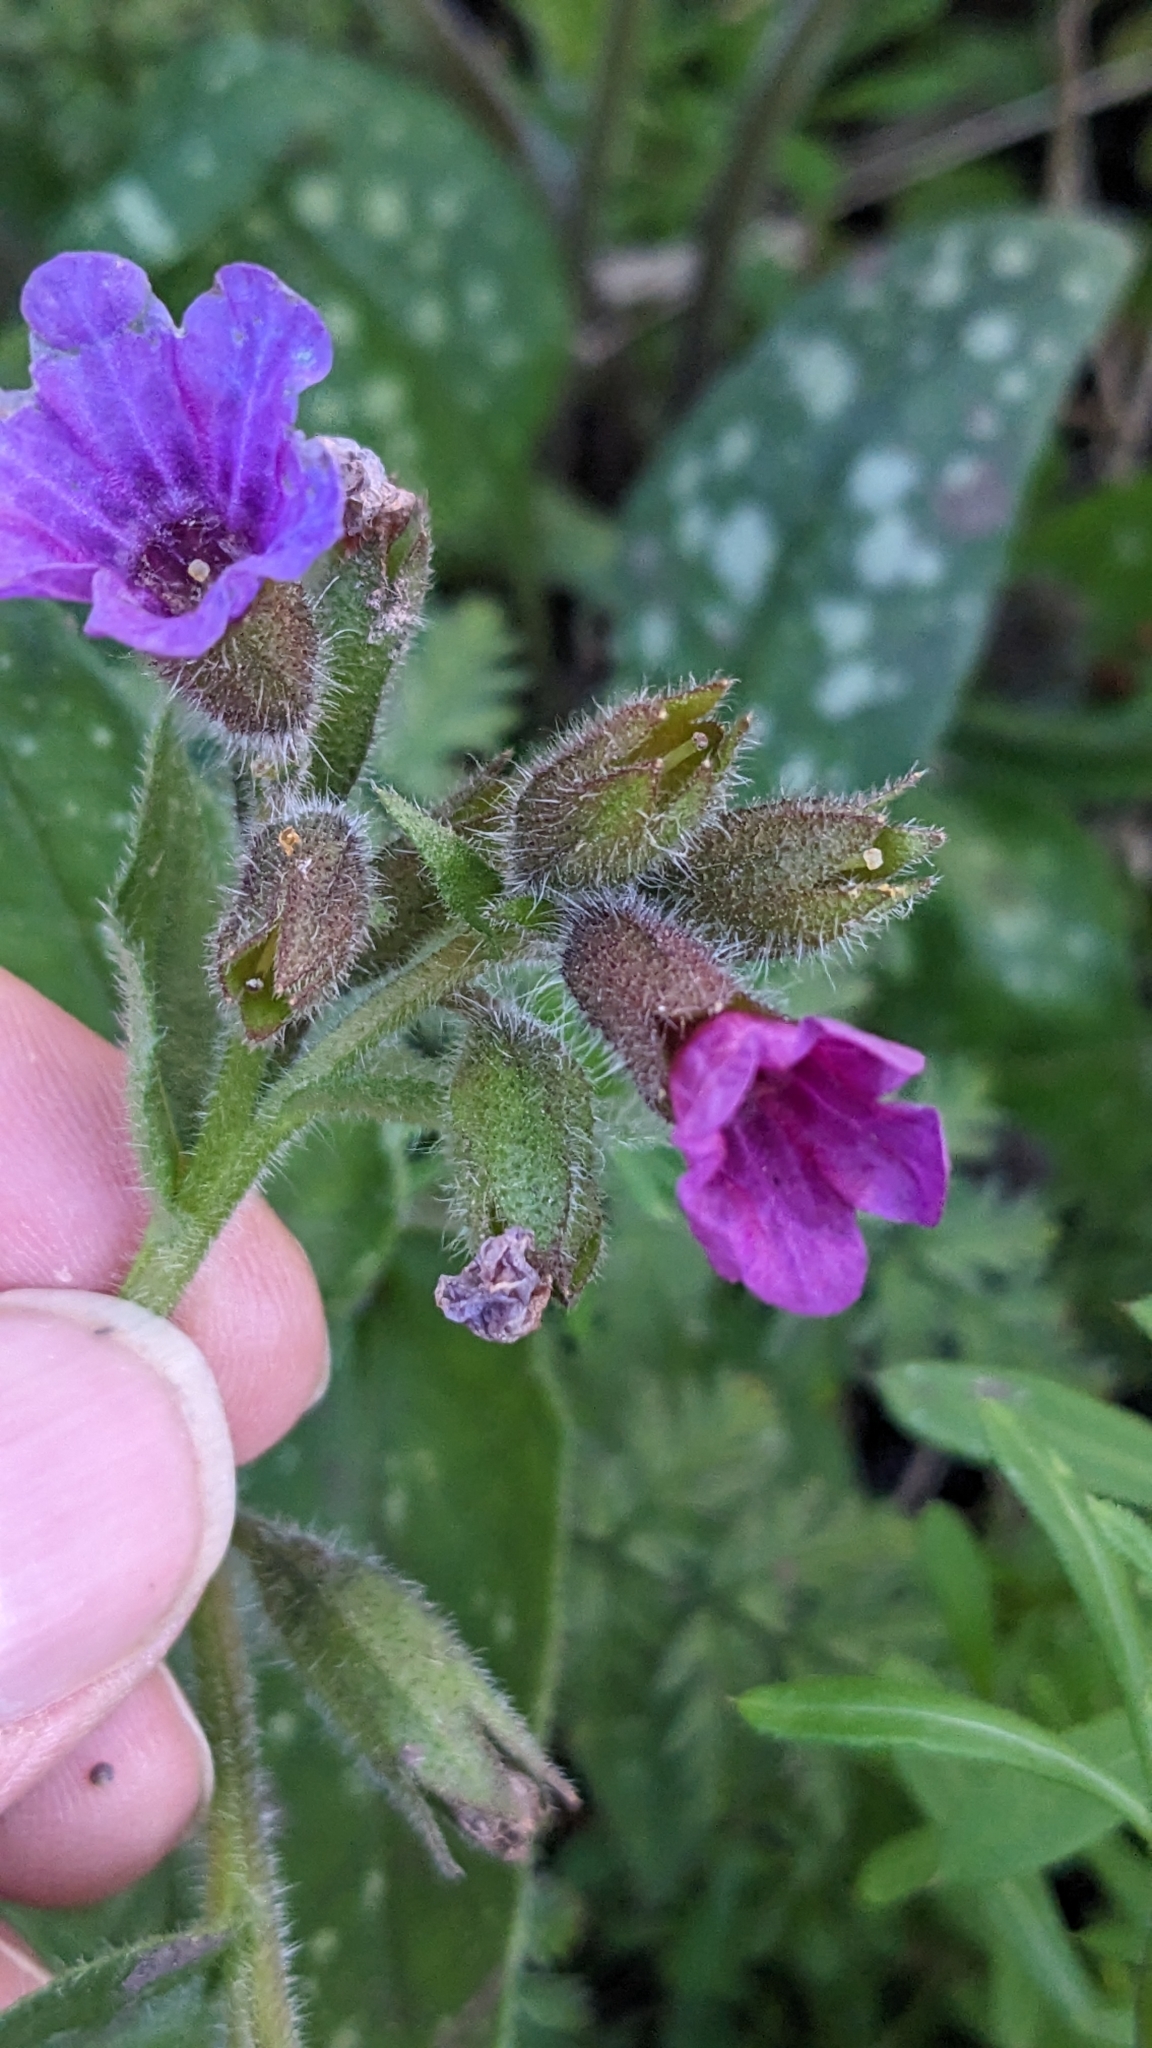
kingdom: Plantae
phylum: Tracheophyta
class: Magnoliopsida
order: Boraginales
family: Boraginaceae
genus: Pulmonaria
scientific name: Pulmonaria officinalis
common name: Lungwort
